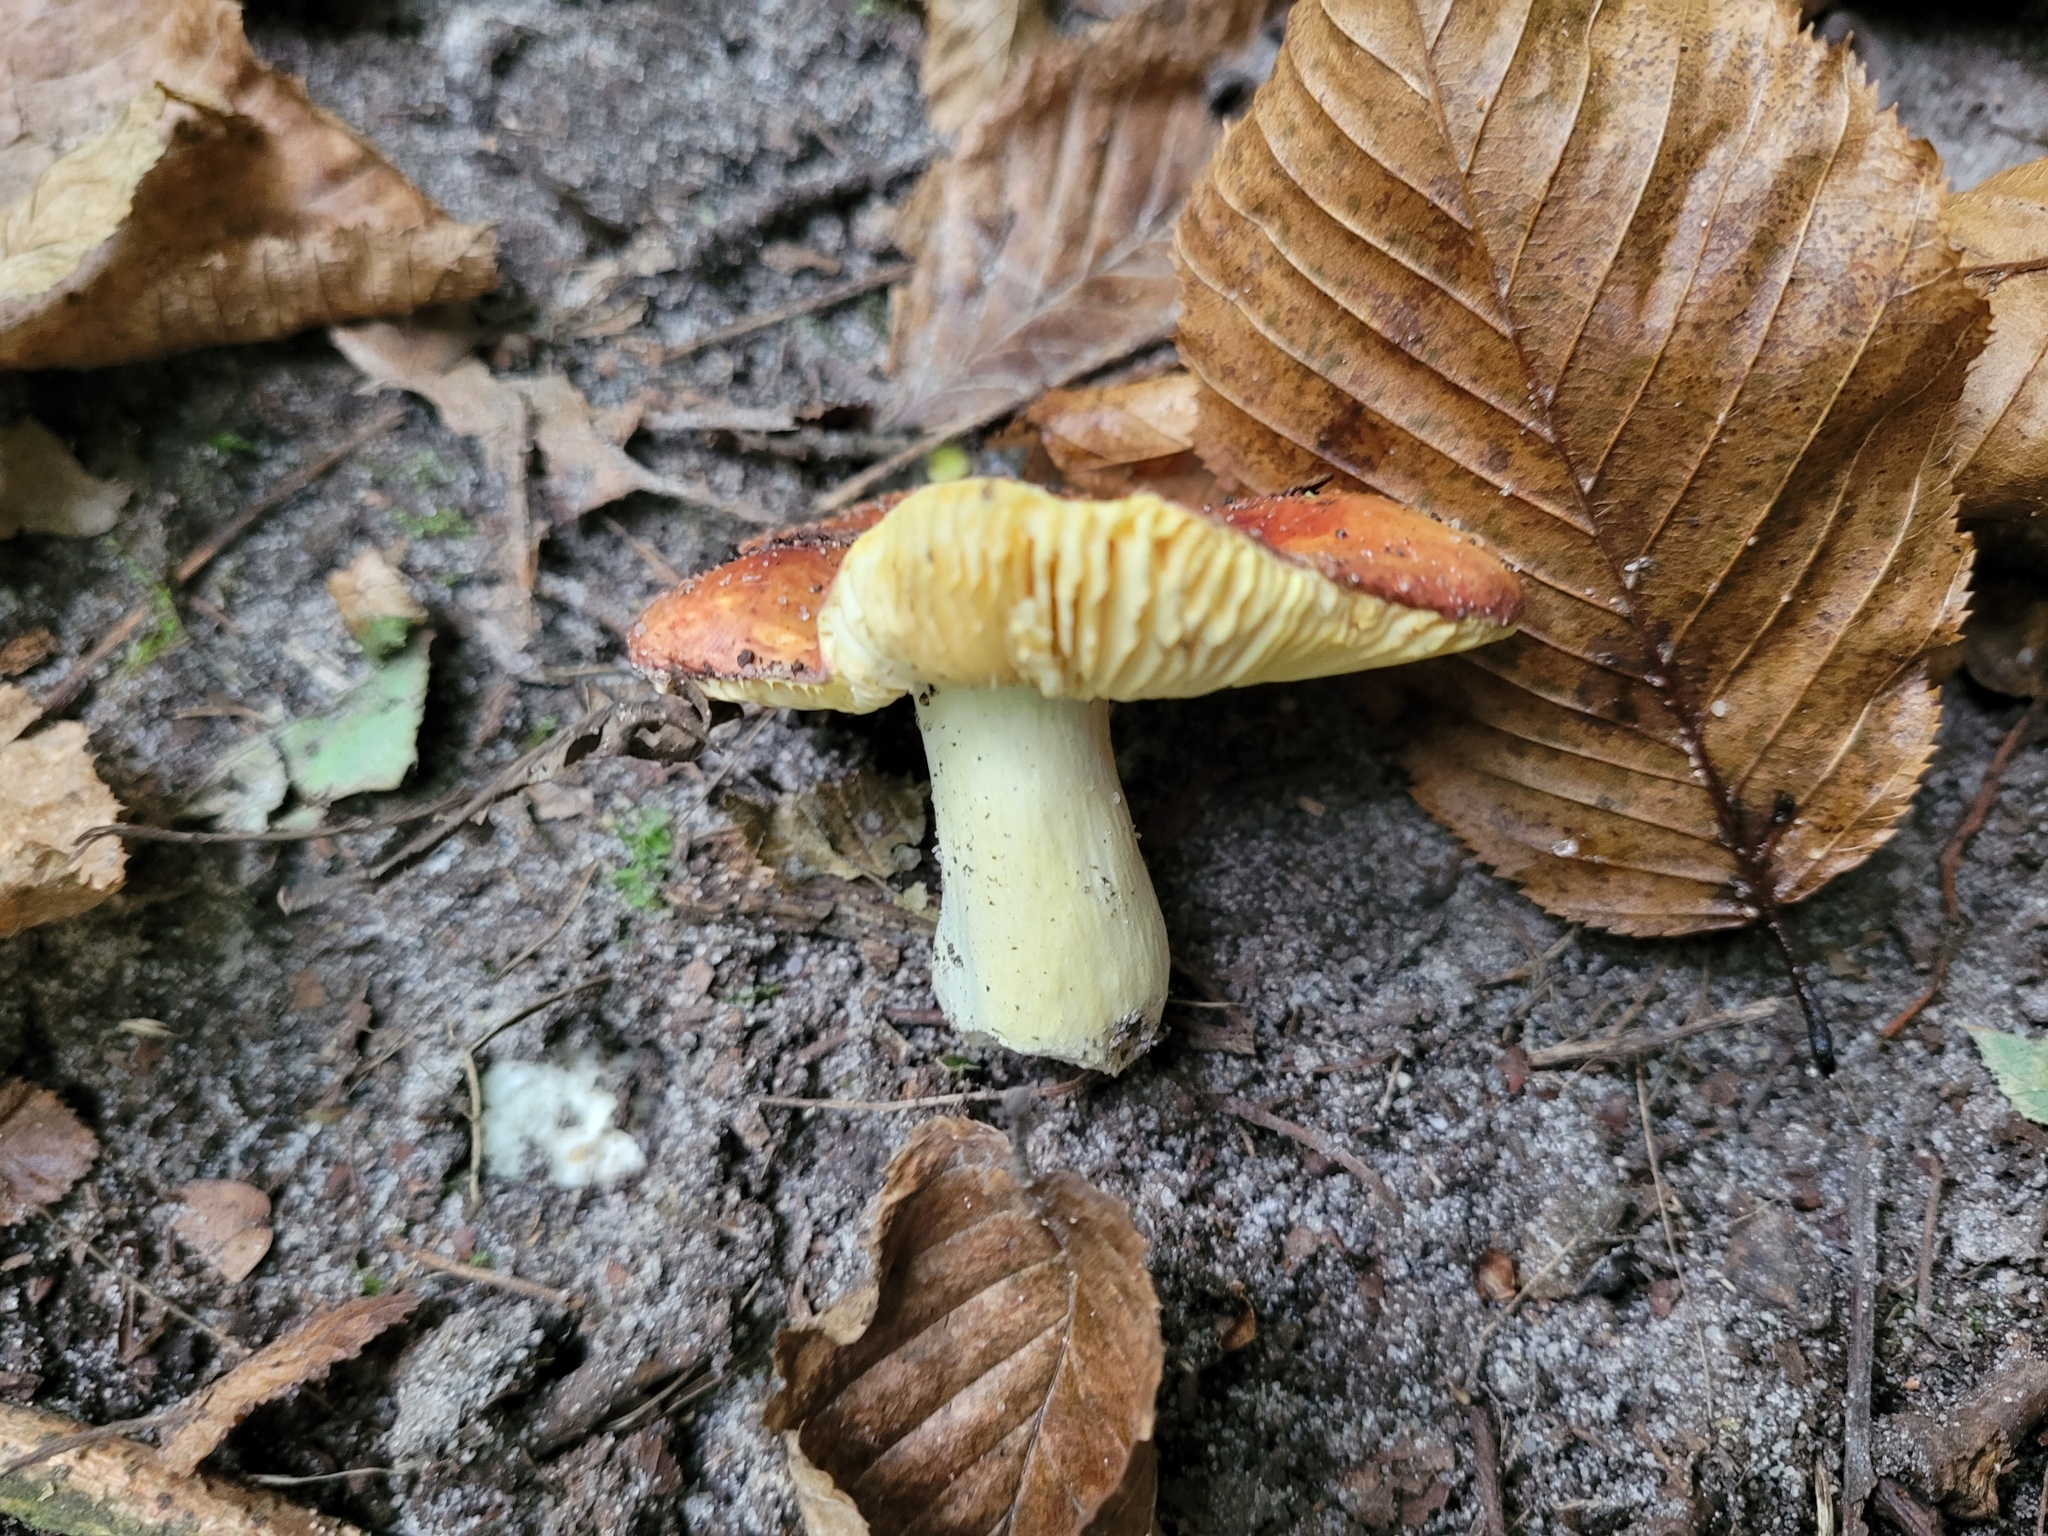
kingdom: Fungi
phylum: Basidiomycota
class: Agaricomycetes
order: Russulales
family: Russulaceae
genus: Russula
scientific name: Russula aurea
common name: Gilded brittlegill
